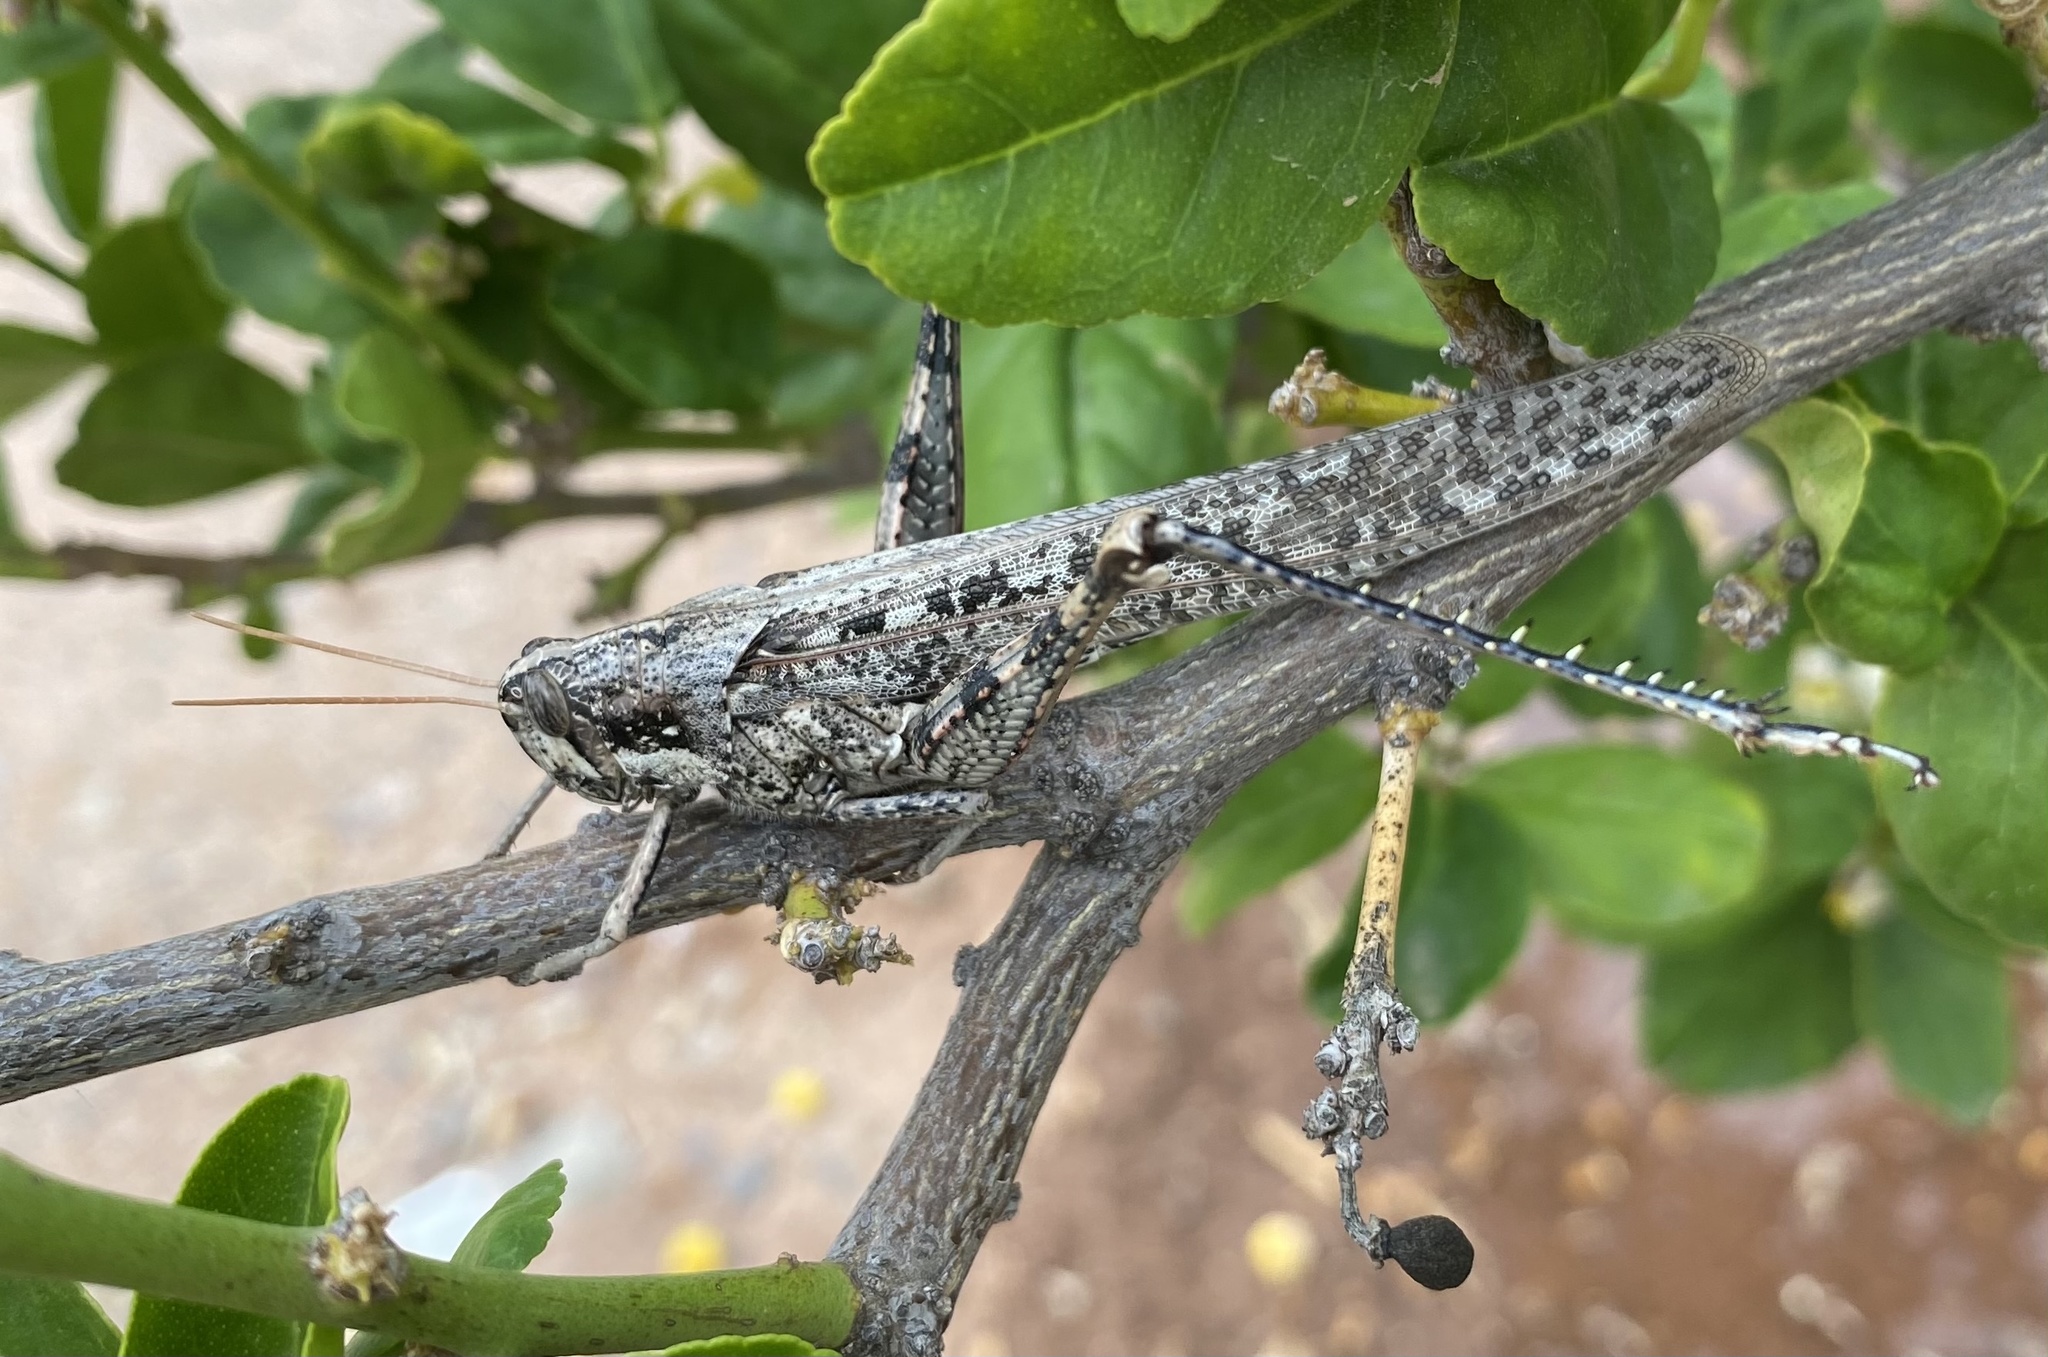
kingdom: Animalia
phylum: Arthropoda
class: Insecta
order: Orthoptera
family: Acrididae
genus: Schistocerca
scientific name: Schistocerca nitens
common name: Vagrant grasshopper
